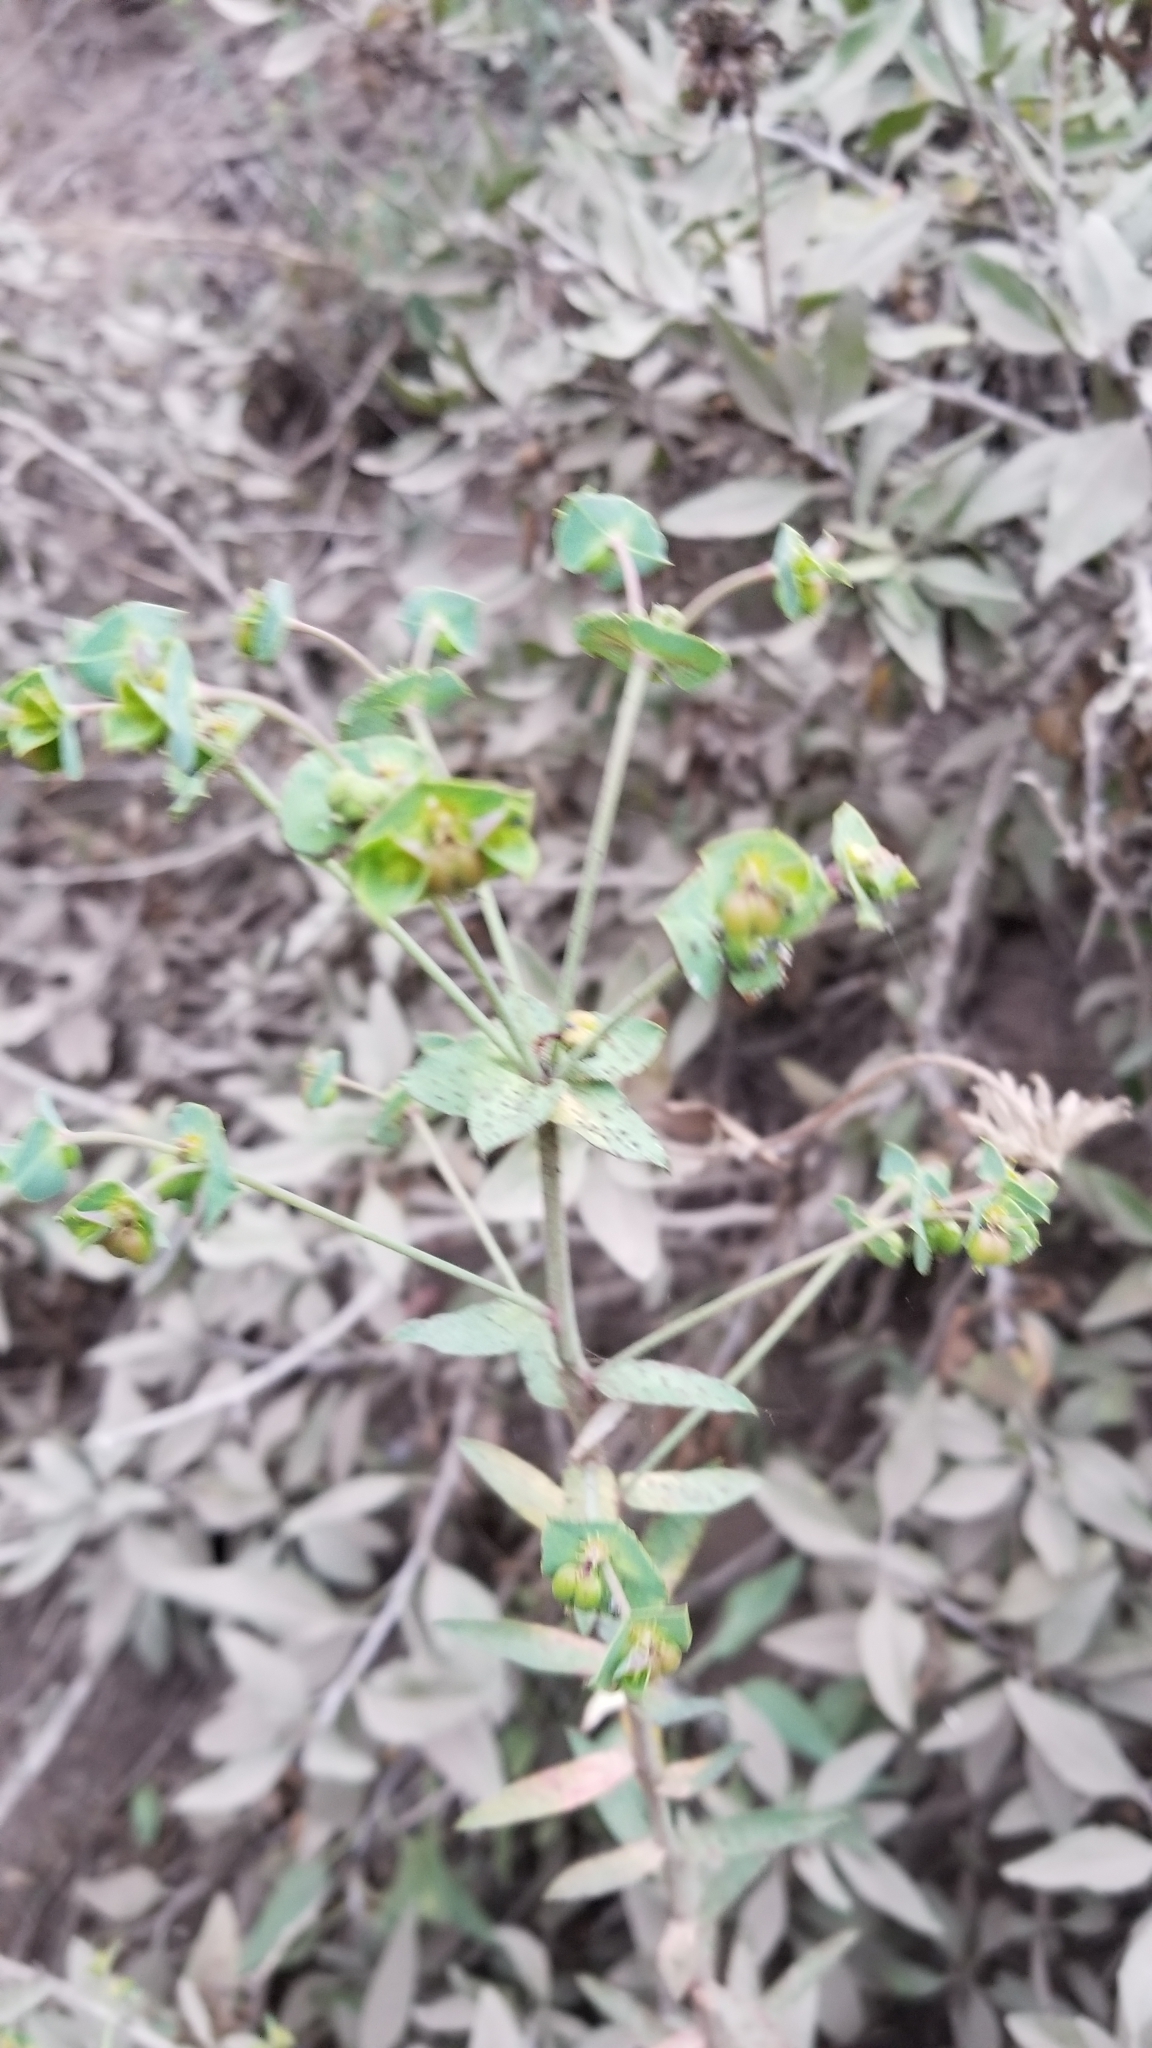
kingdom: Plantae
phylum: Tracheophyta
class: Magnoliopsida
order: Malpighiales
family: Euphorbiaceae
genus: Euphorbia
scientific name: Euphorbia terracina
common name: Geraldton carnation weed
